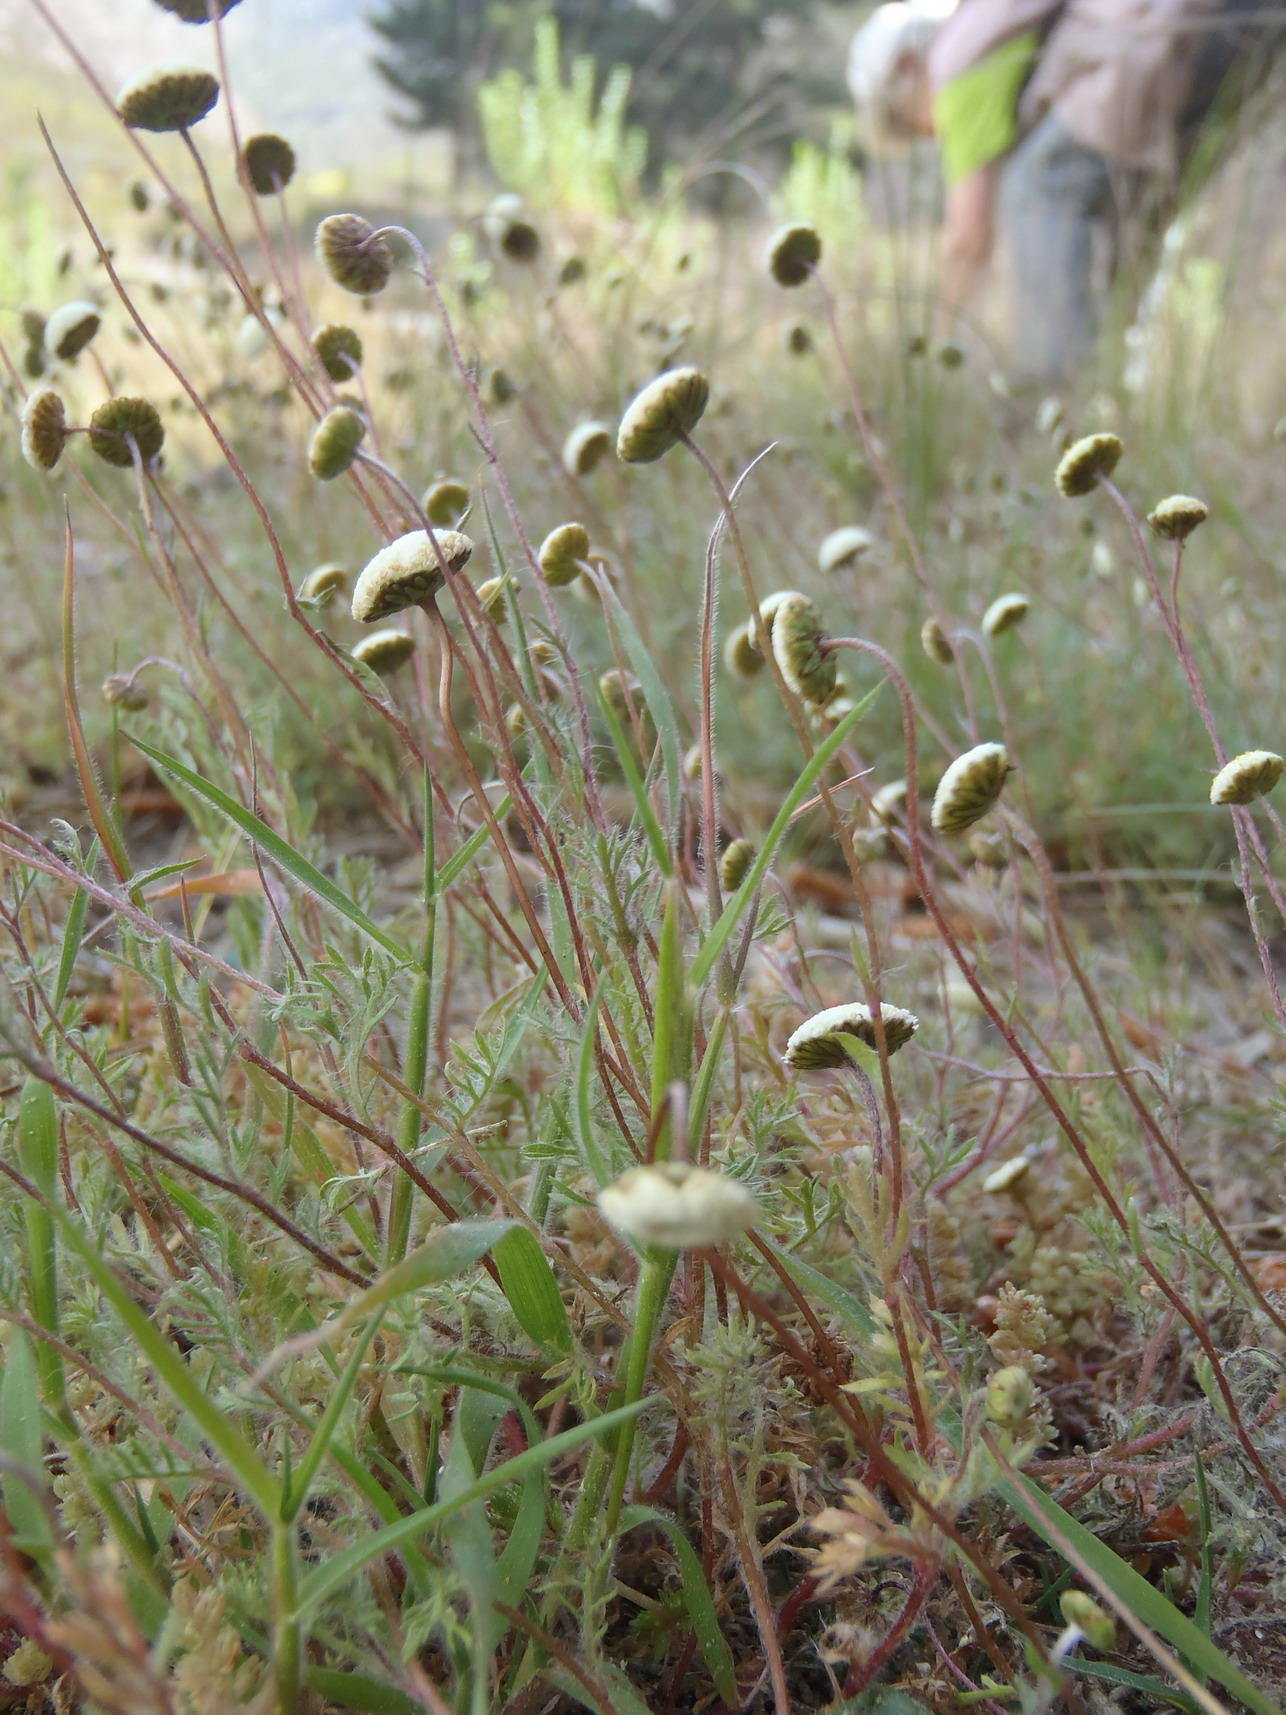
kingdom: Plantae
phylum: Tracheophyta
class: Magnoliopsida
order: Asterales
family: Asteraceae
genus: Cotula
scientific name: Cotula laxa
